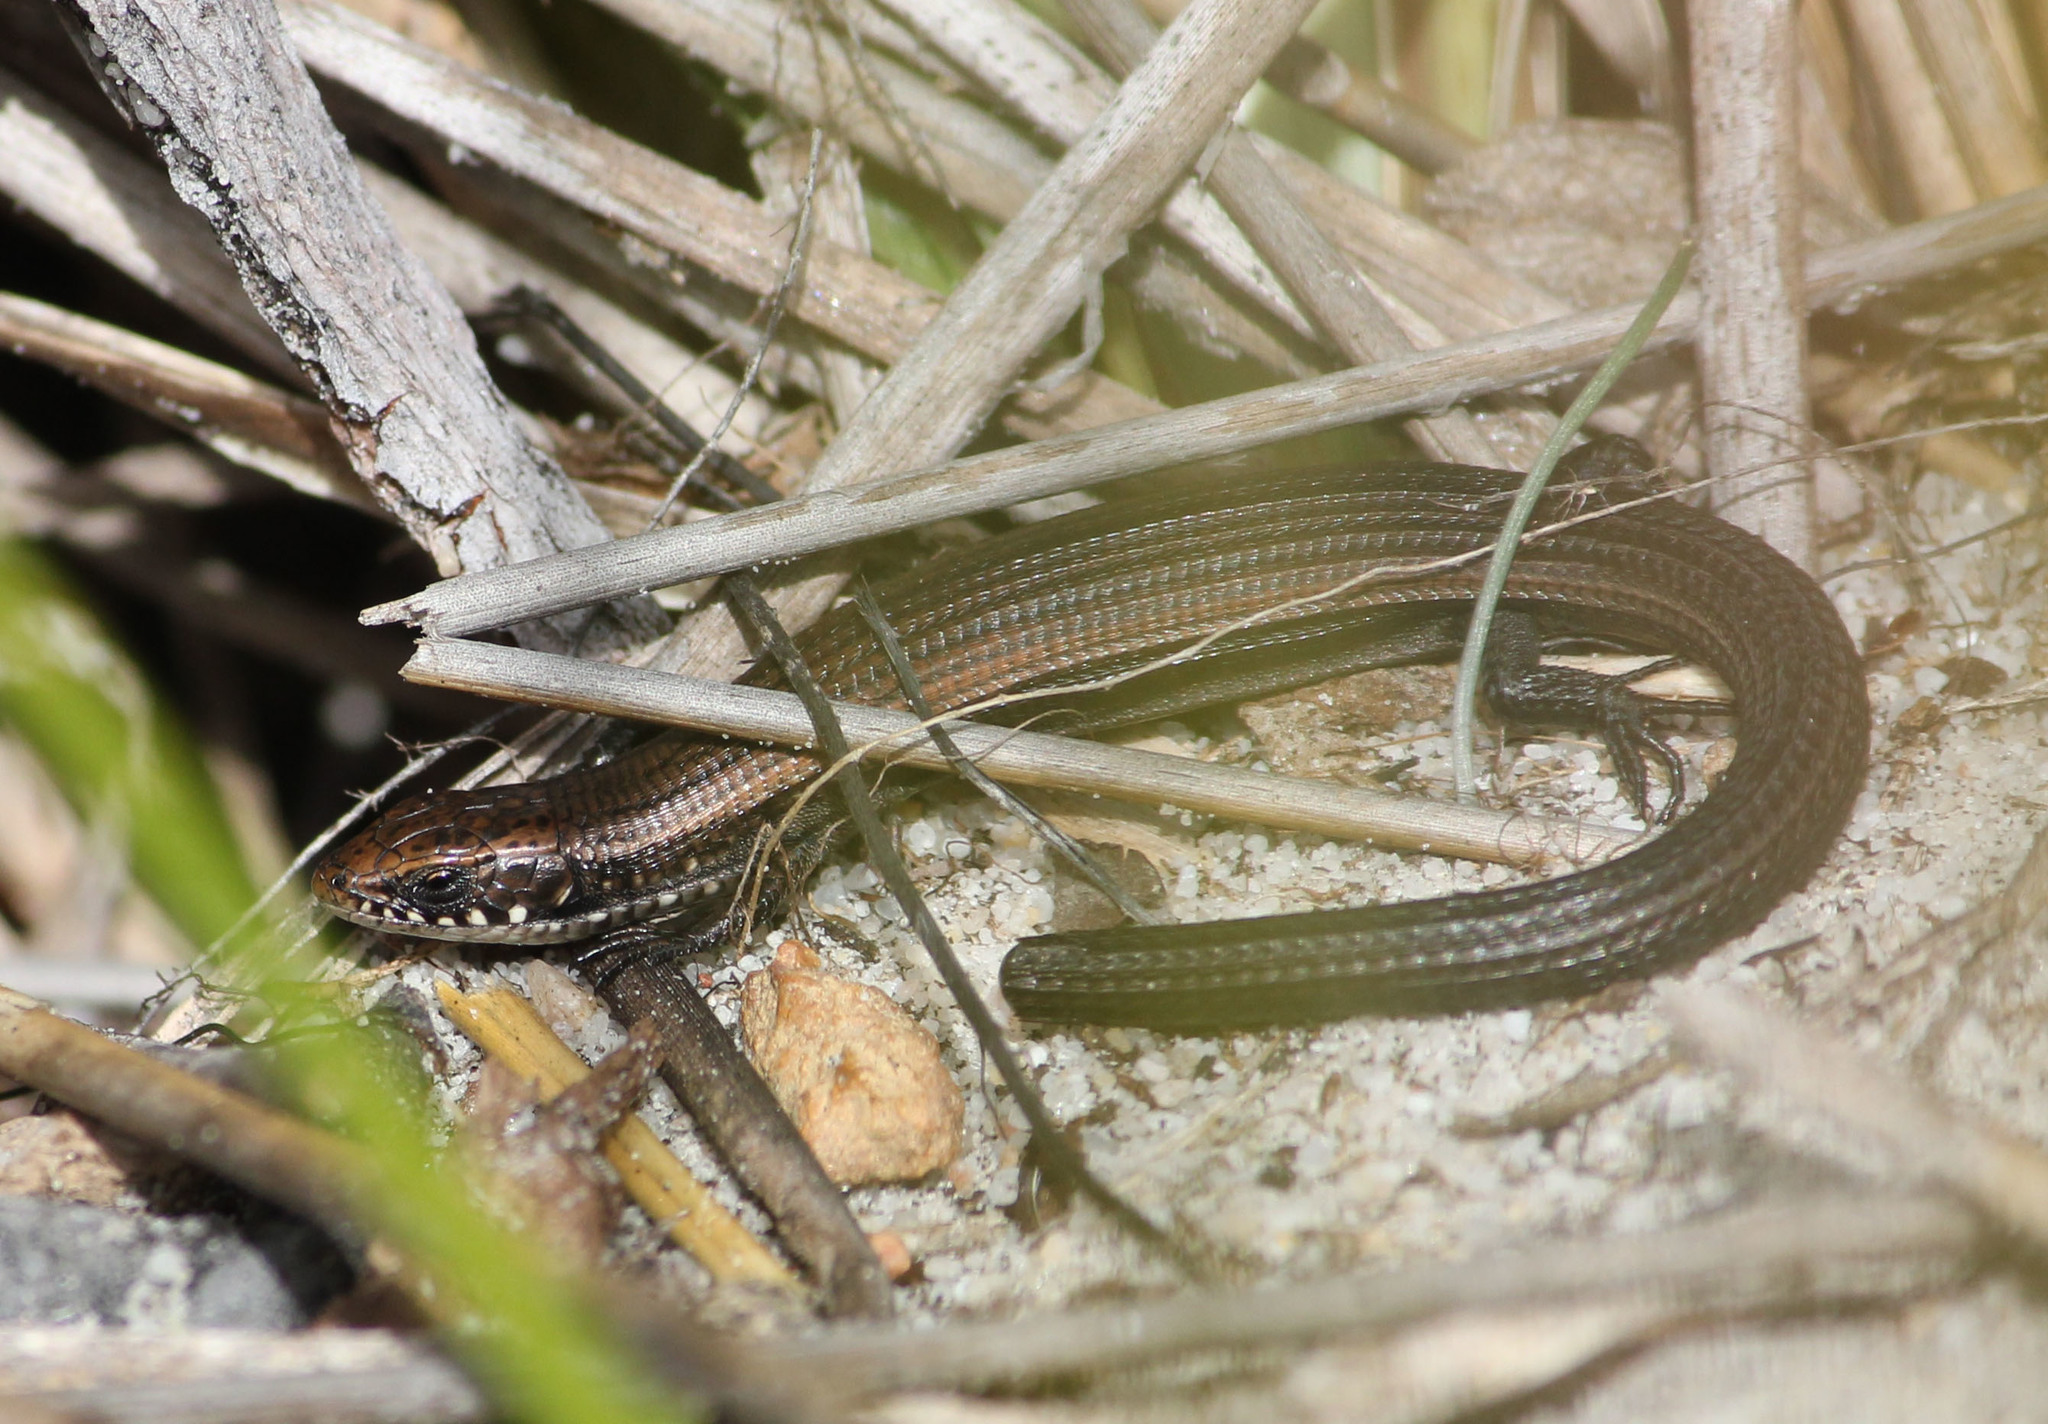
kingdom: Animalia
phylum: Chordata
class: Squamata
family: Gerrhosauridae
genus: Tetradactylus
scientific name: Tetradactylus seps
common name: Five-toed whip lizard
